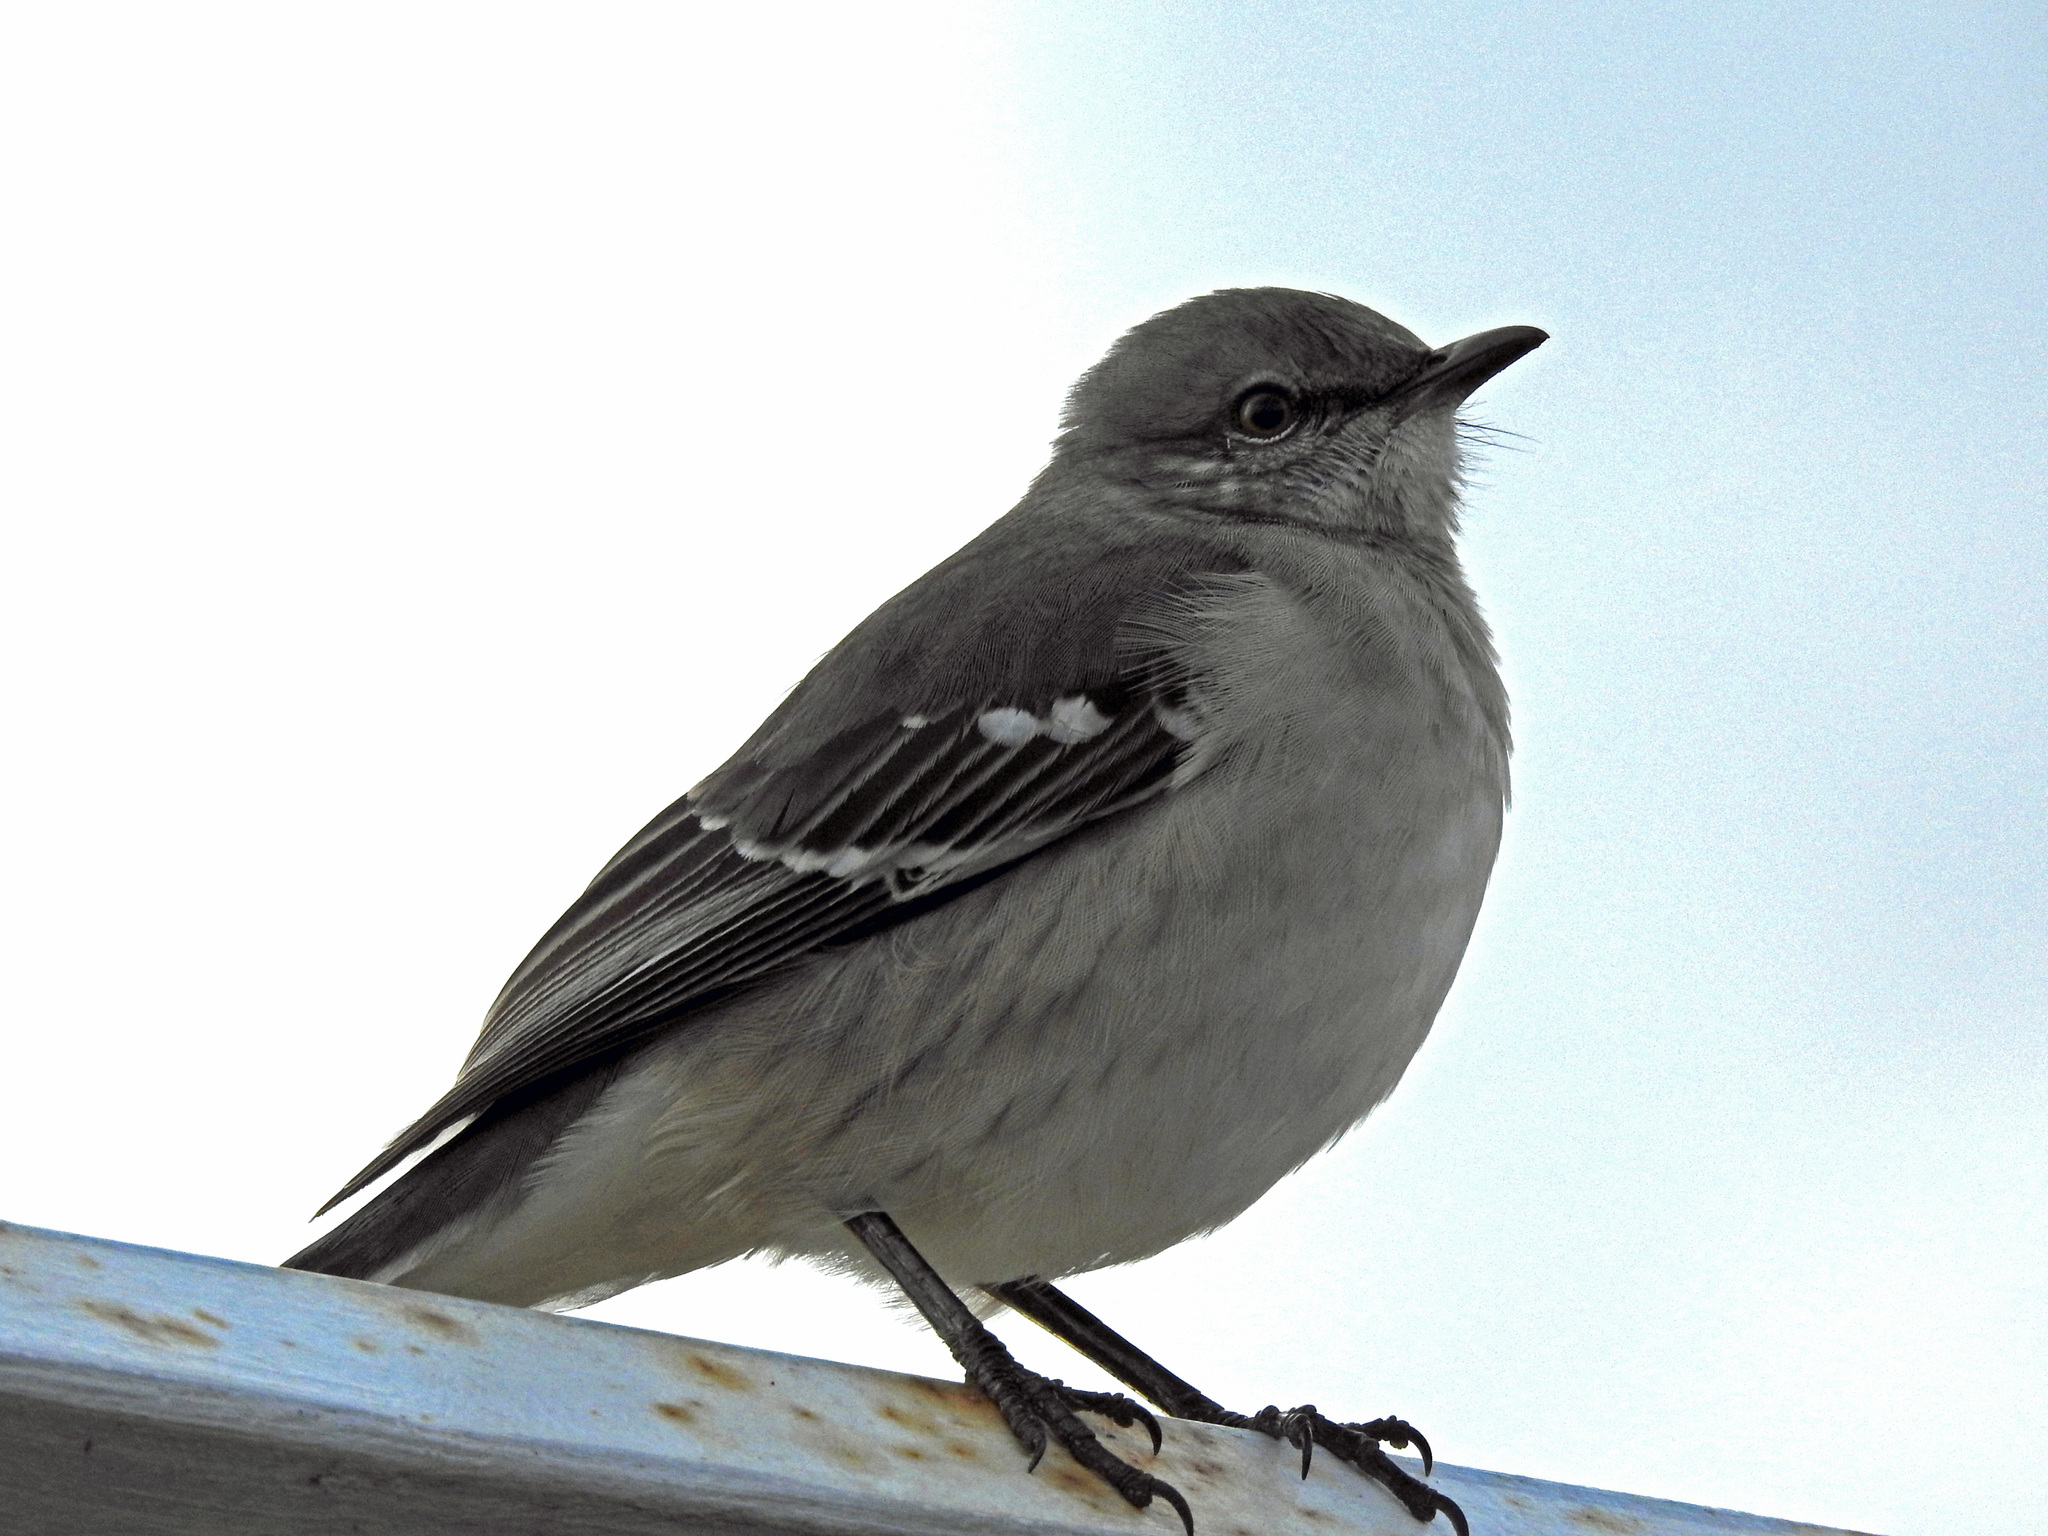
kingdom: Animalia
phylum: Chordata
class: Aves
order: Passeriformes
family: Mimidae
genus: Mimus
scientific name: Mimus polyglottos
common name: Northern mockingbird
